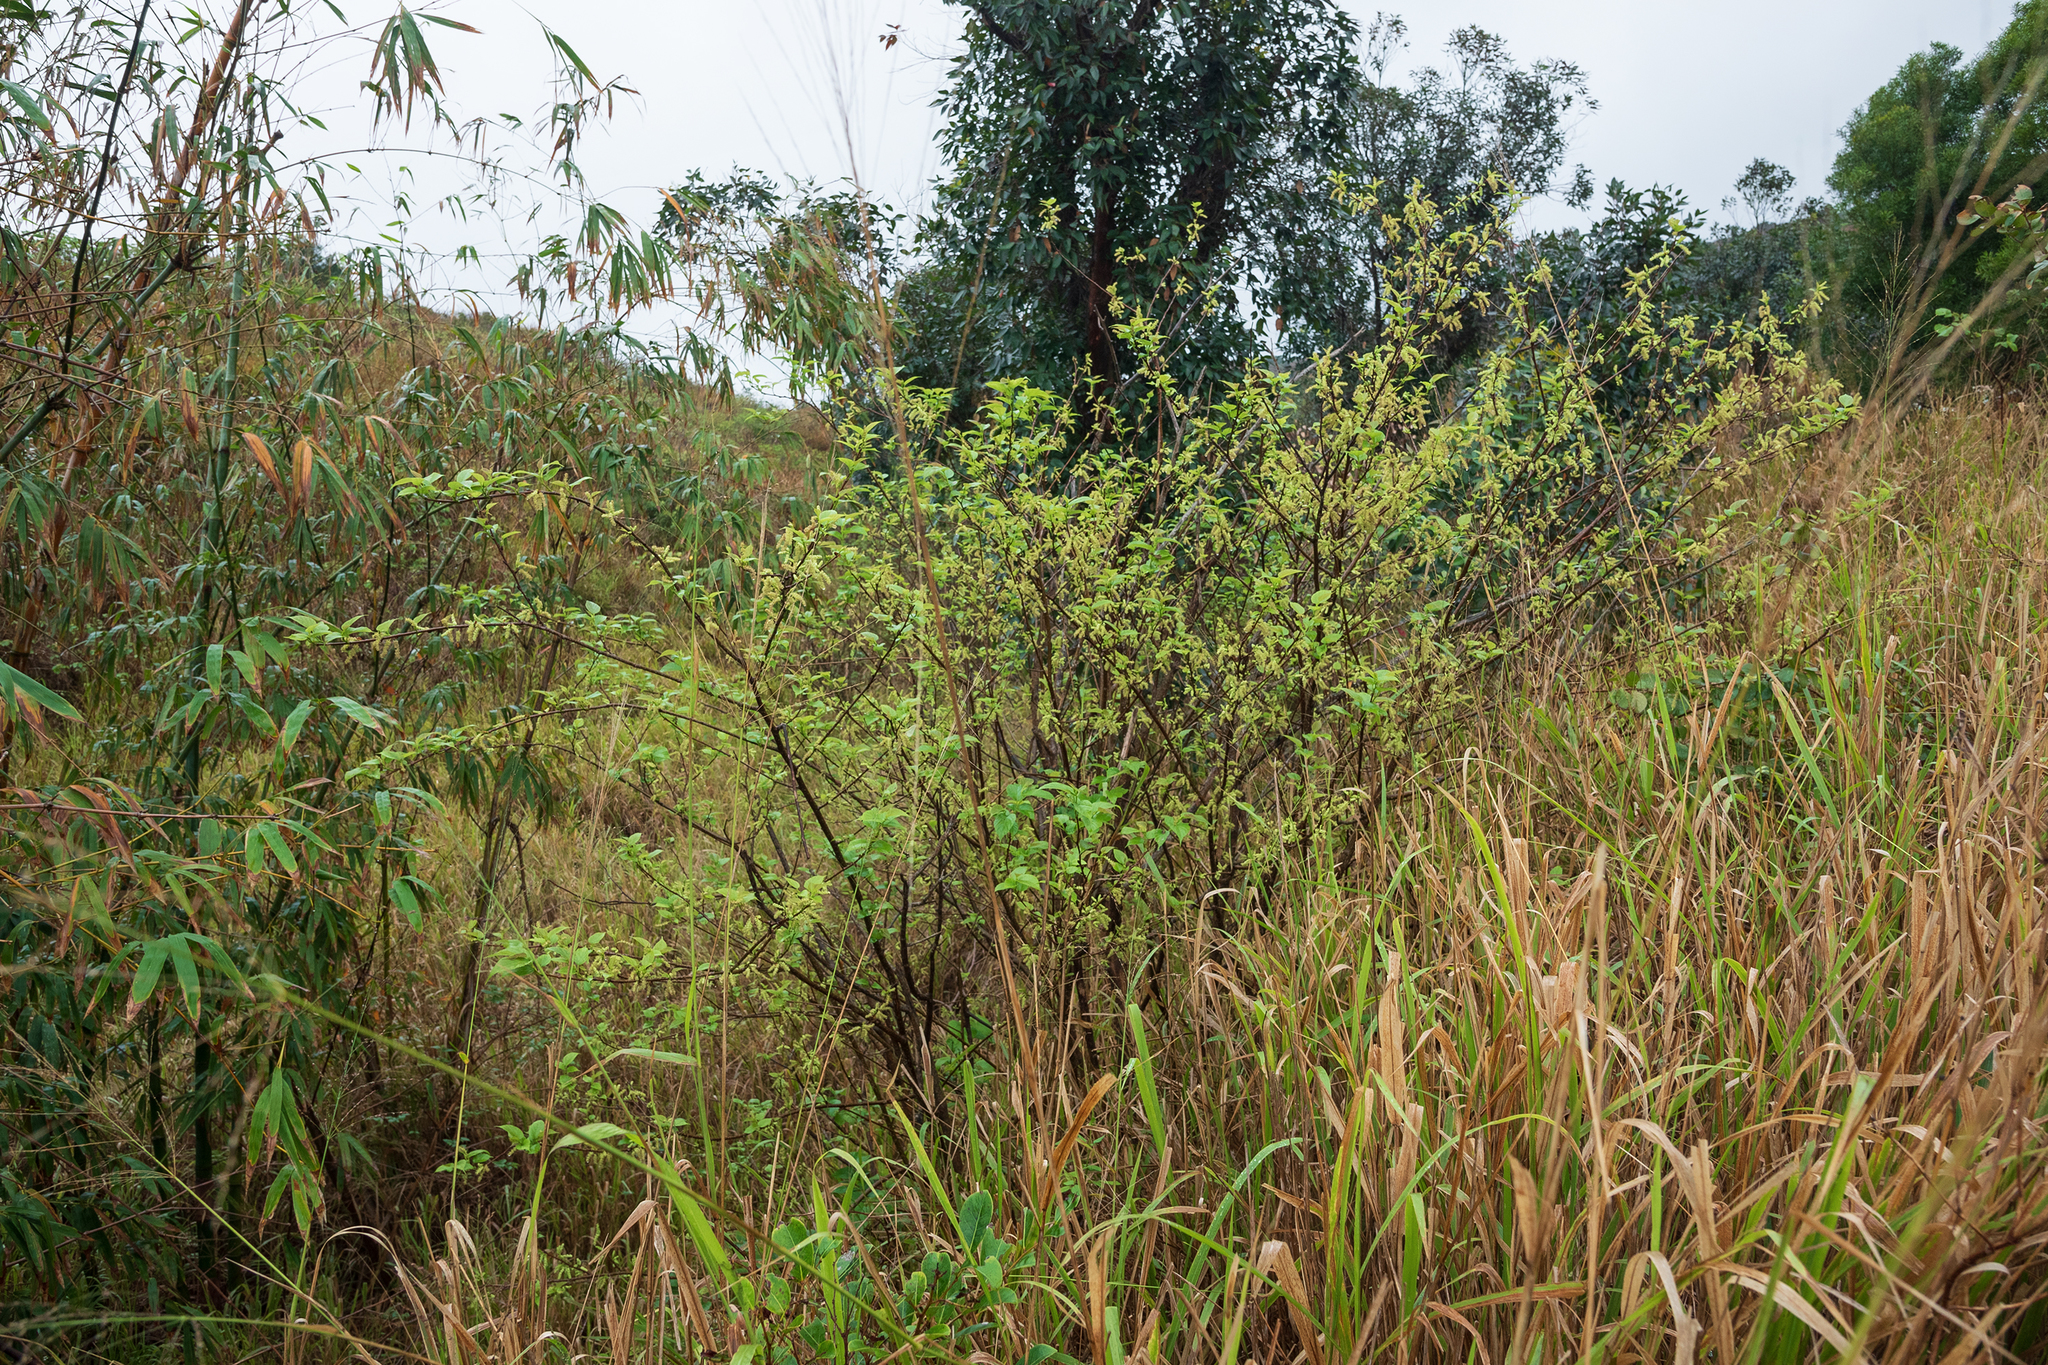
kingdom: Plantae
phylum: Tracheophyta
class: Magnoliopsida
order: Rosales
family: Moraceae
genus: Morus
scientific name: Morus indica
